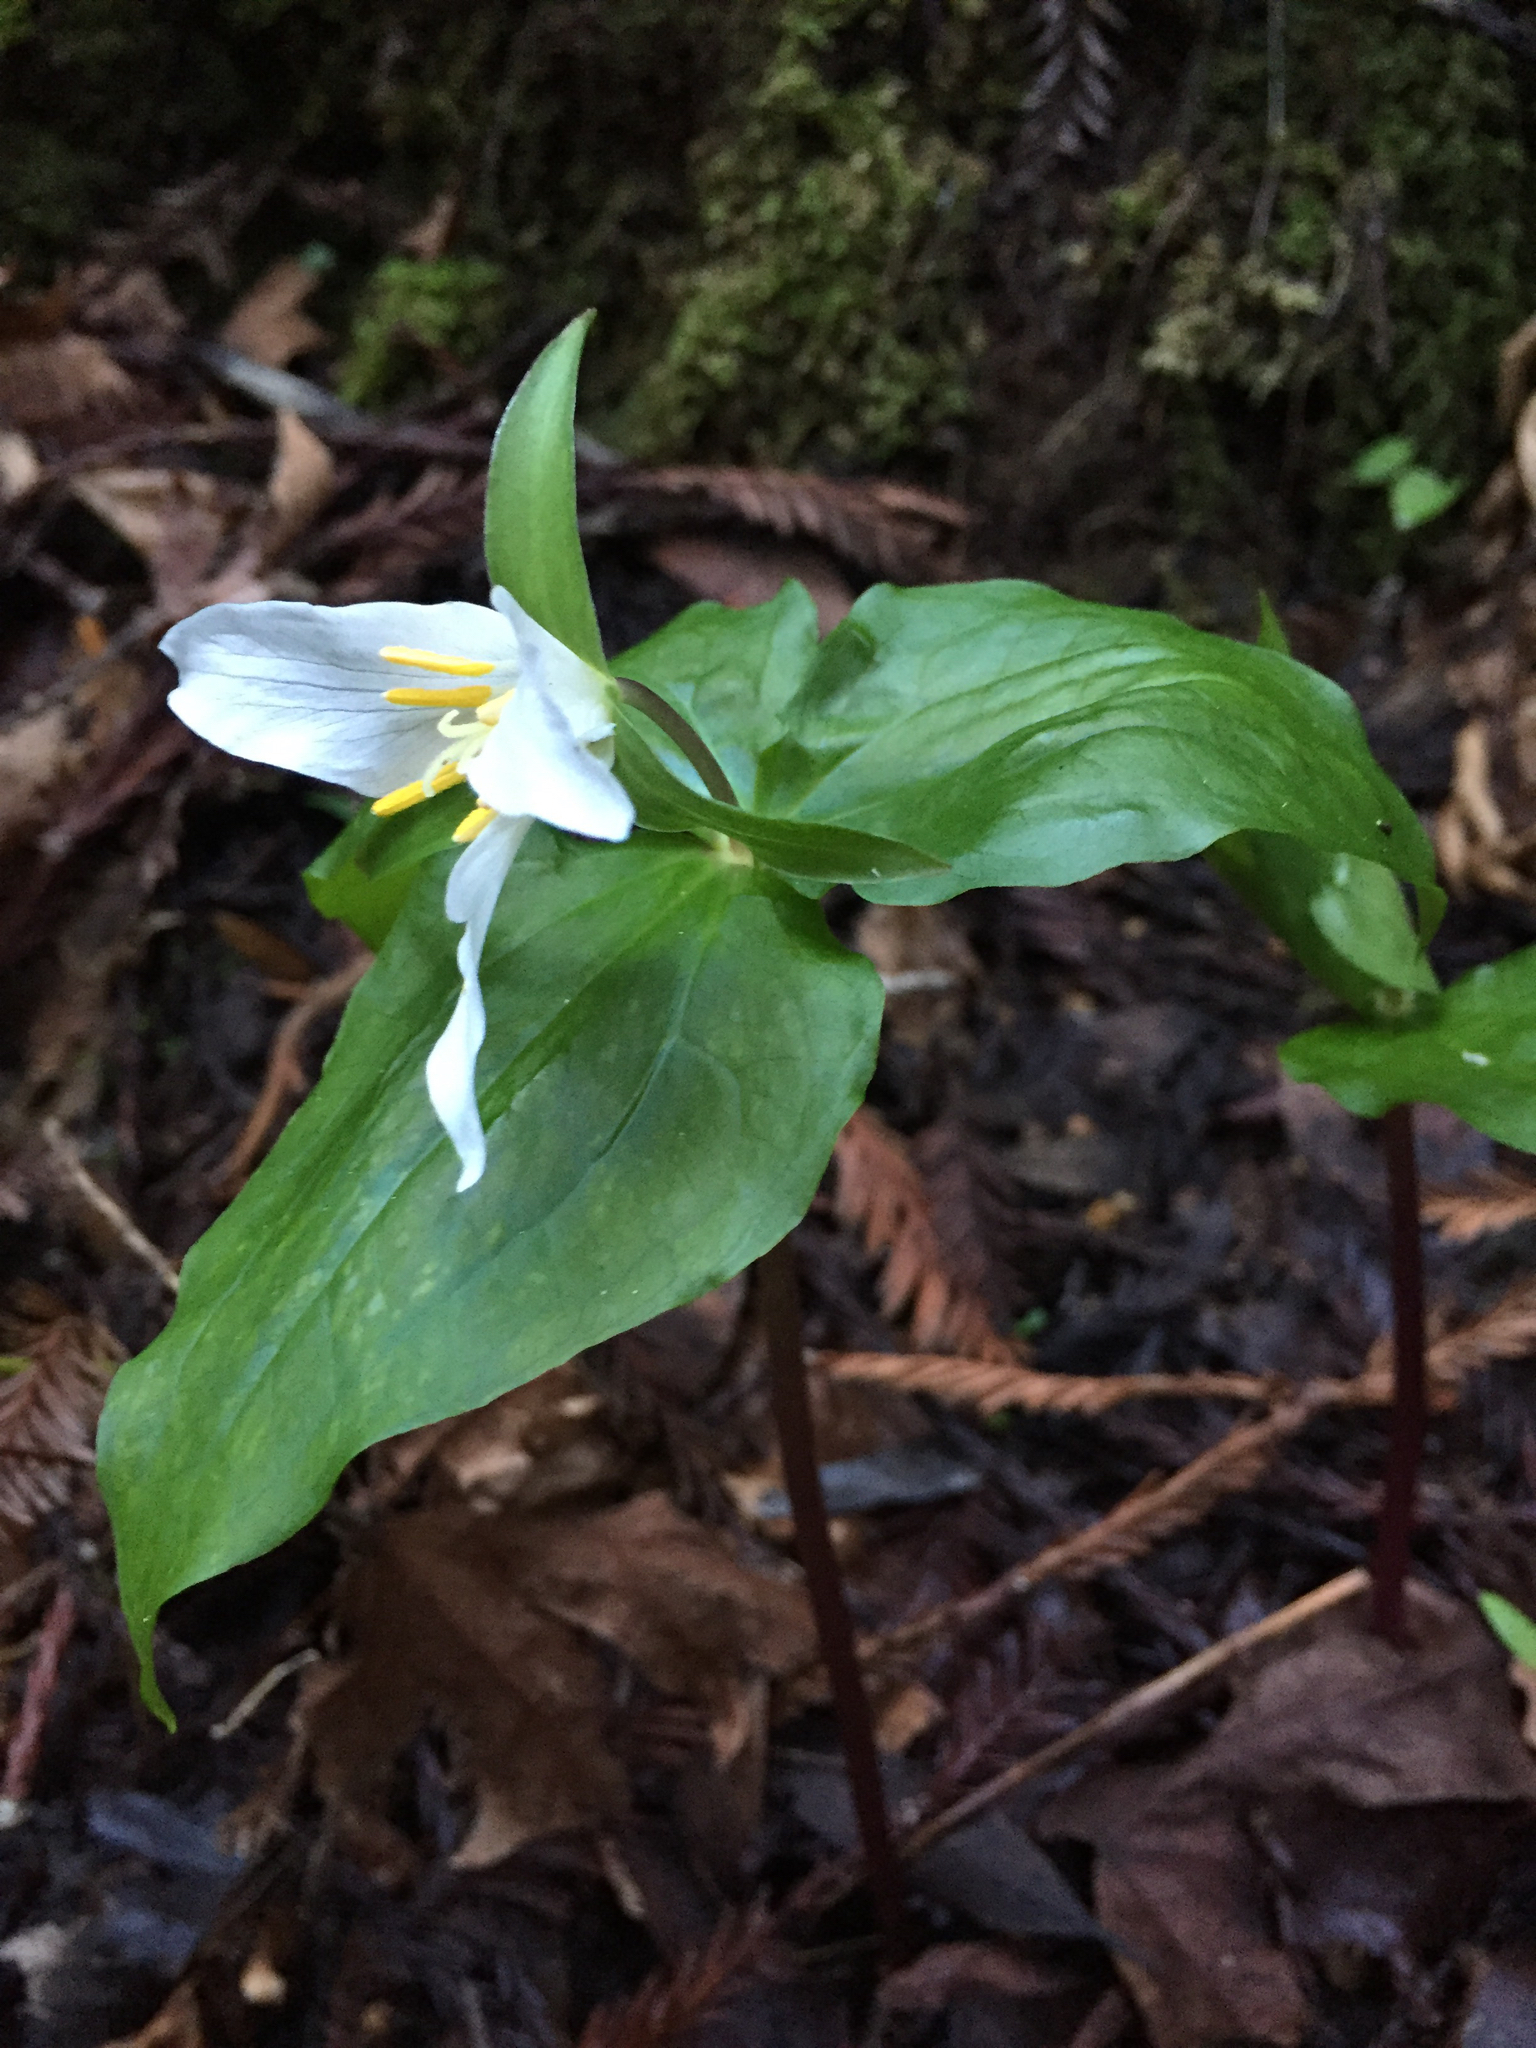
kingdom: Plantae
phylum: Tracheophyta
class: Liliopsida
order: Liliales
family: Melanthiaceae
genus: Trillium
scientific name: Trillium ovatum
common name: Pacific trillium
